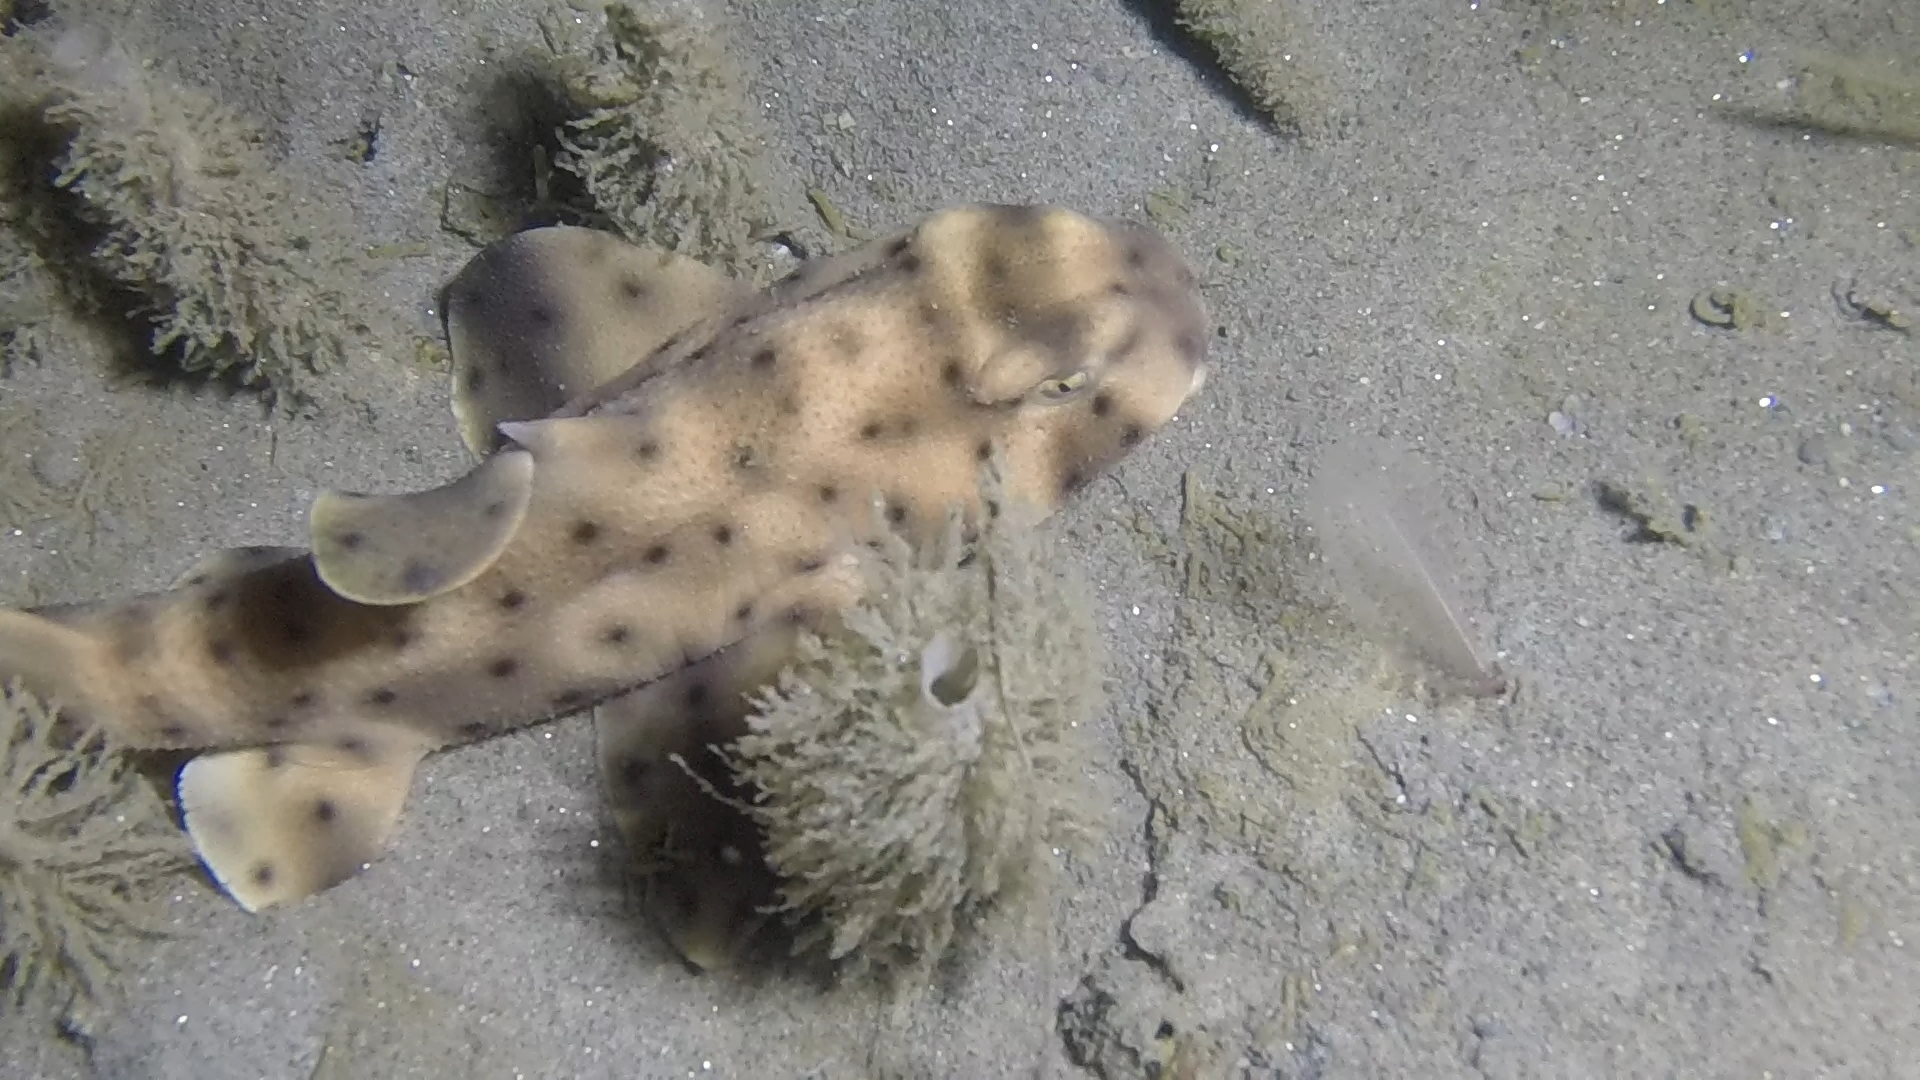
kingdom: Animalia
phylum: Chordata
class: Elasmobranchii
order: Heterodontiformes
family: Heterodontidae
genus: Heterodontus
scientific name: Heterodontus francisci
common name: Horn shark
